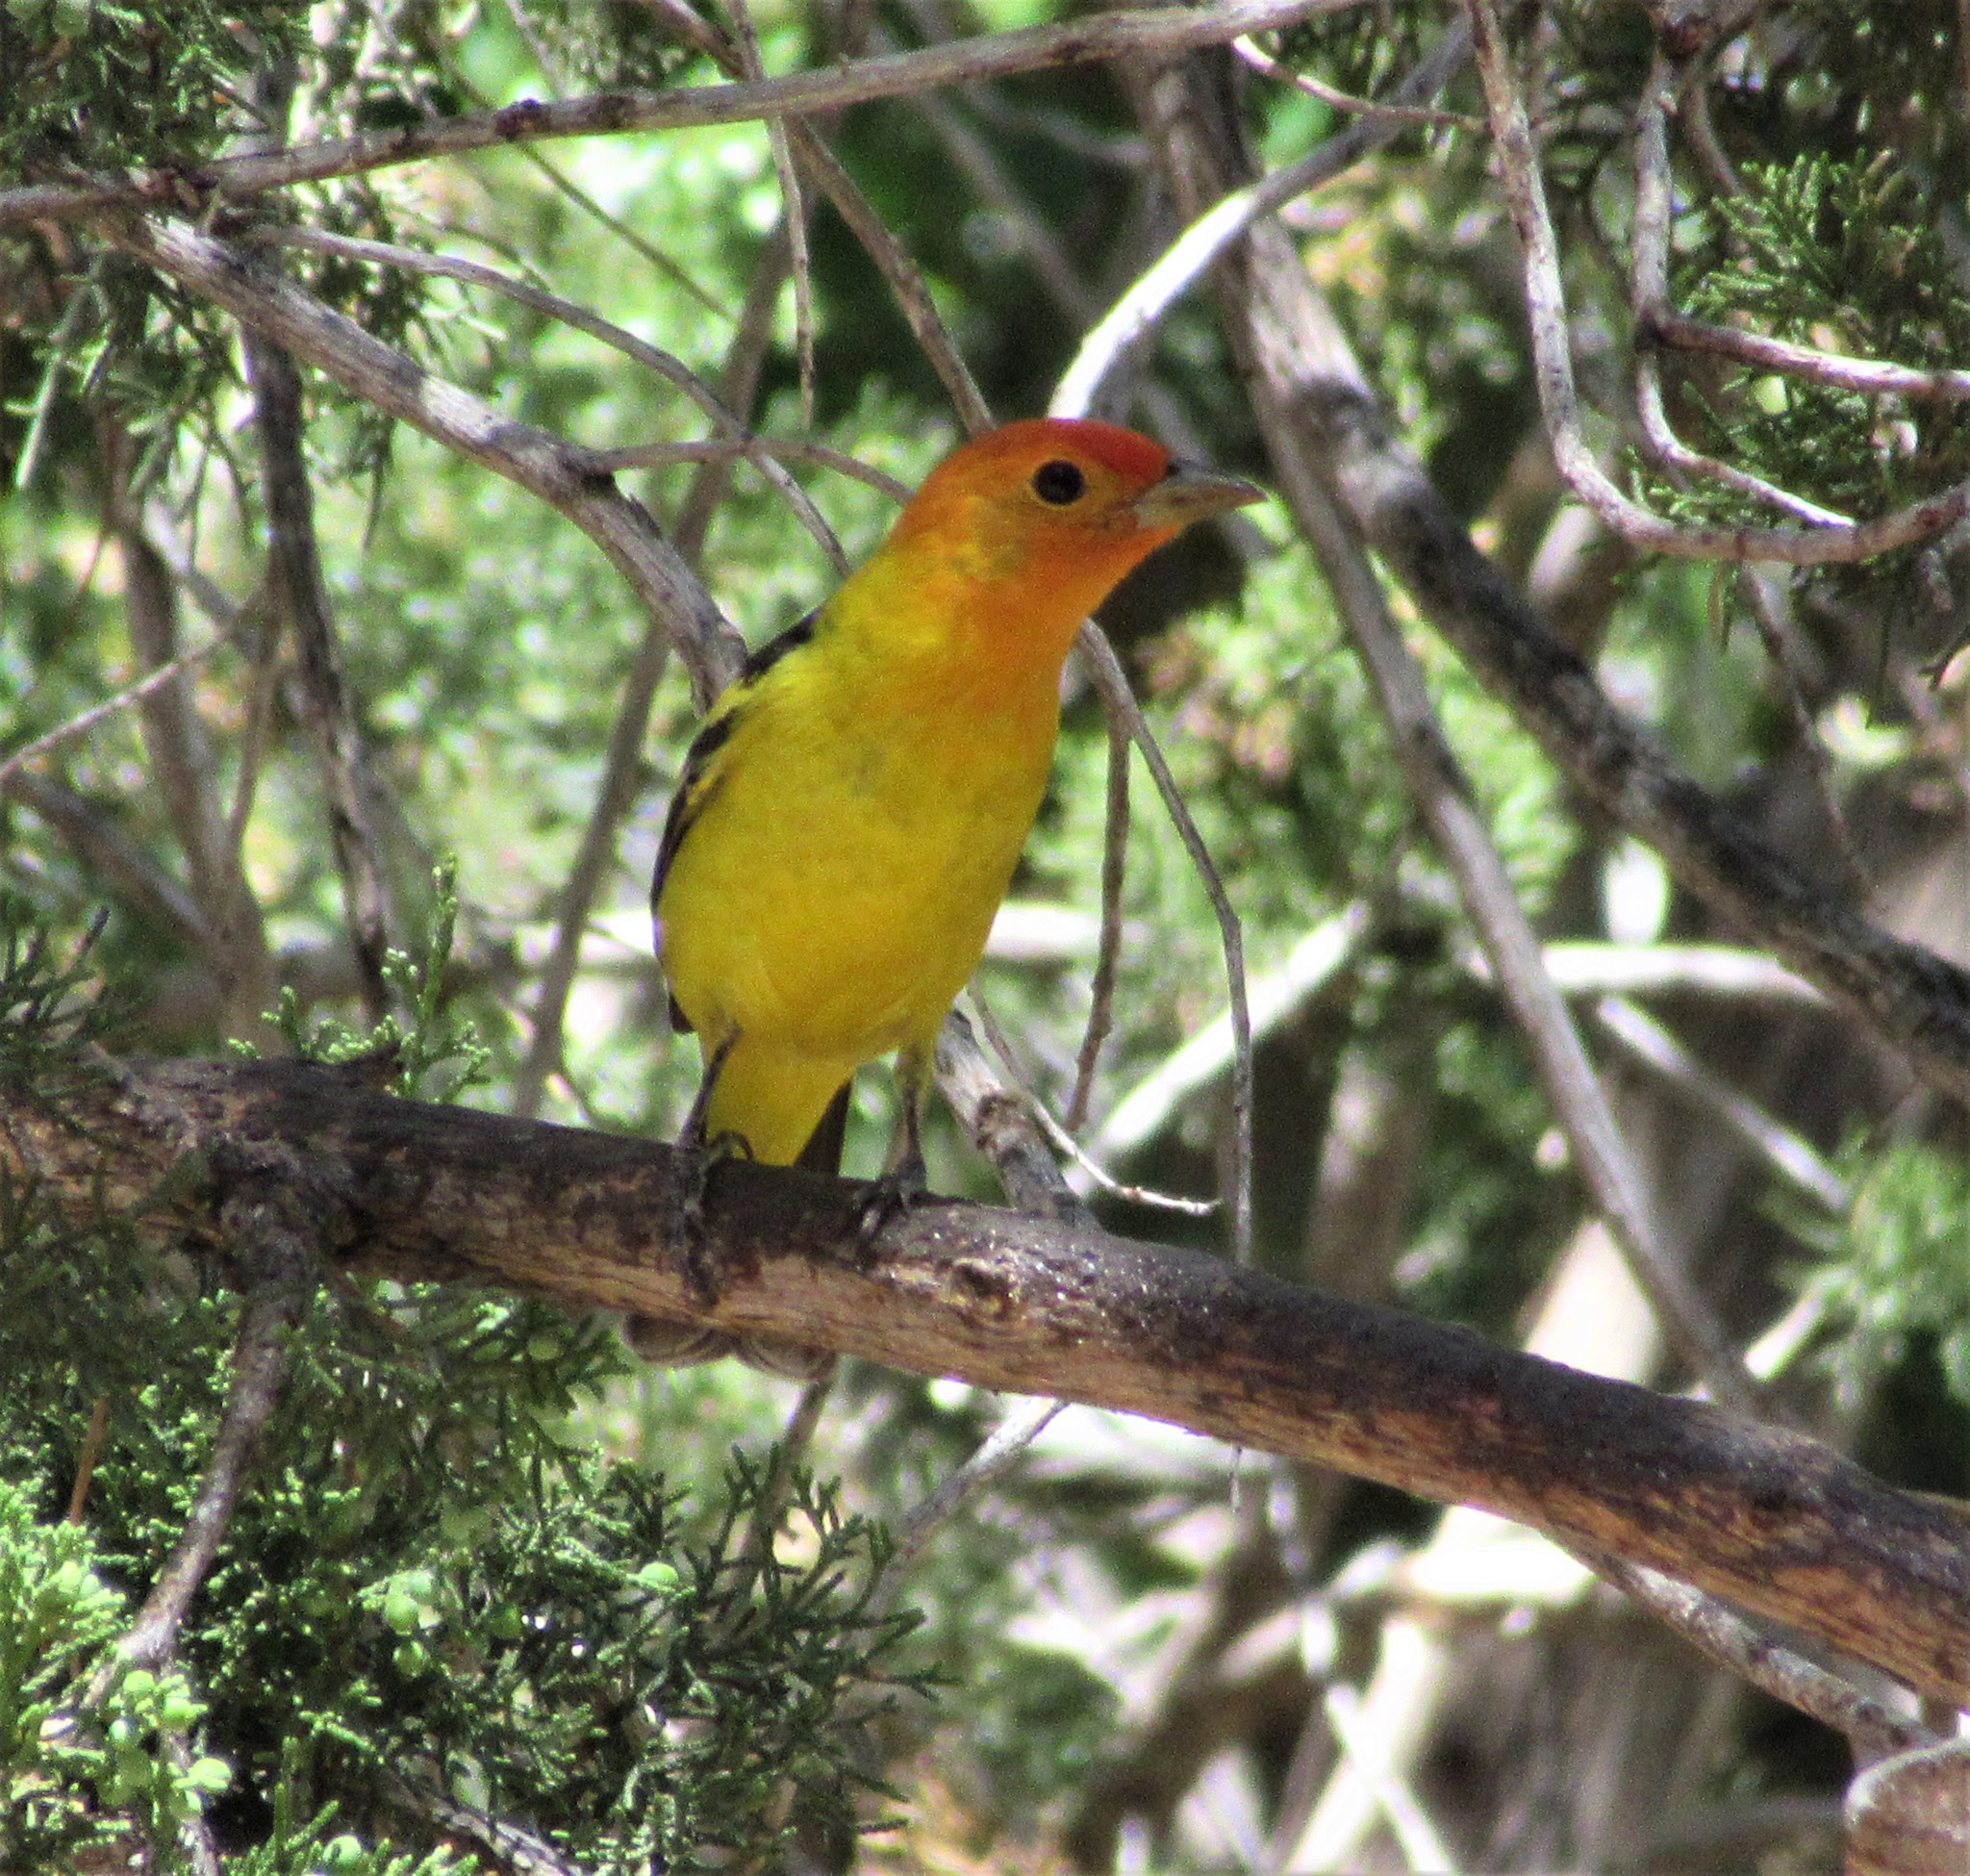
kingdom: Animalia
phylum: Chordata
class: Aves
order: Passeriformes
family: Cardinalidae
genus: Piranga
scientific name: Piranga ludoviciana
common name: Western tanager
